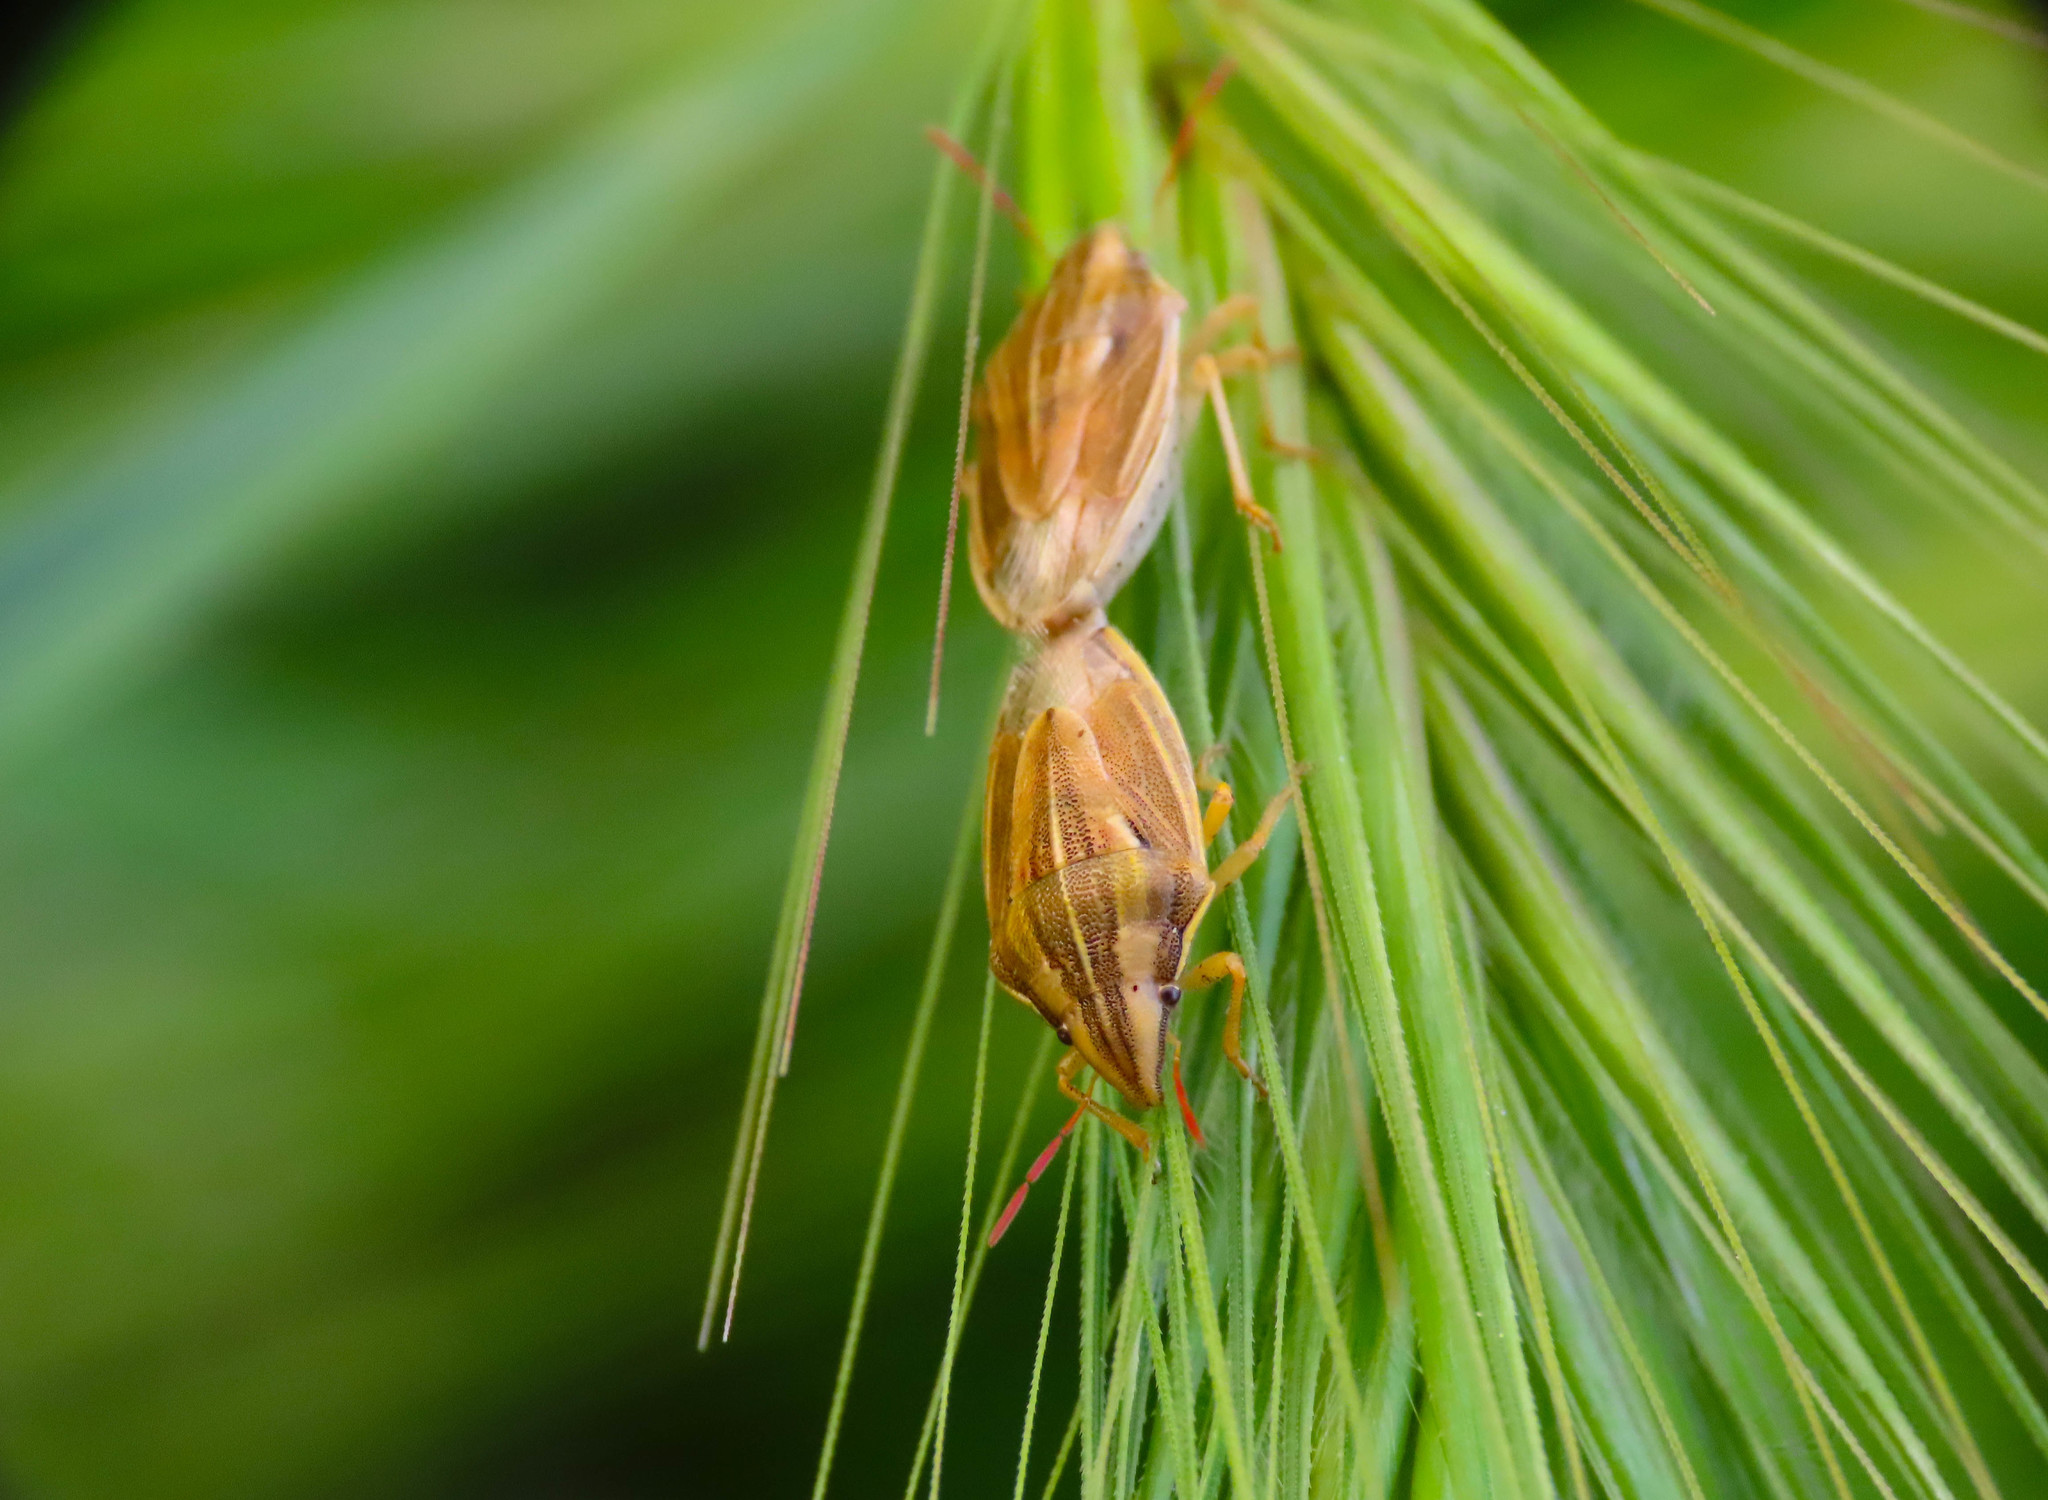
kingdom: Animalia
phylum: Arthropoda
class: Insecta
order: Hemiptera
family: Pentatomidae
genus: Aelia
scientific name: Aelia acuminata
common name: Bishop's mitre
